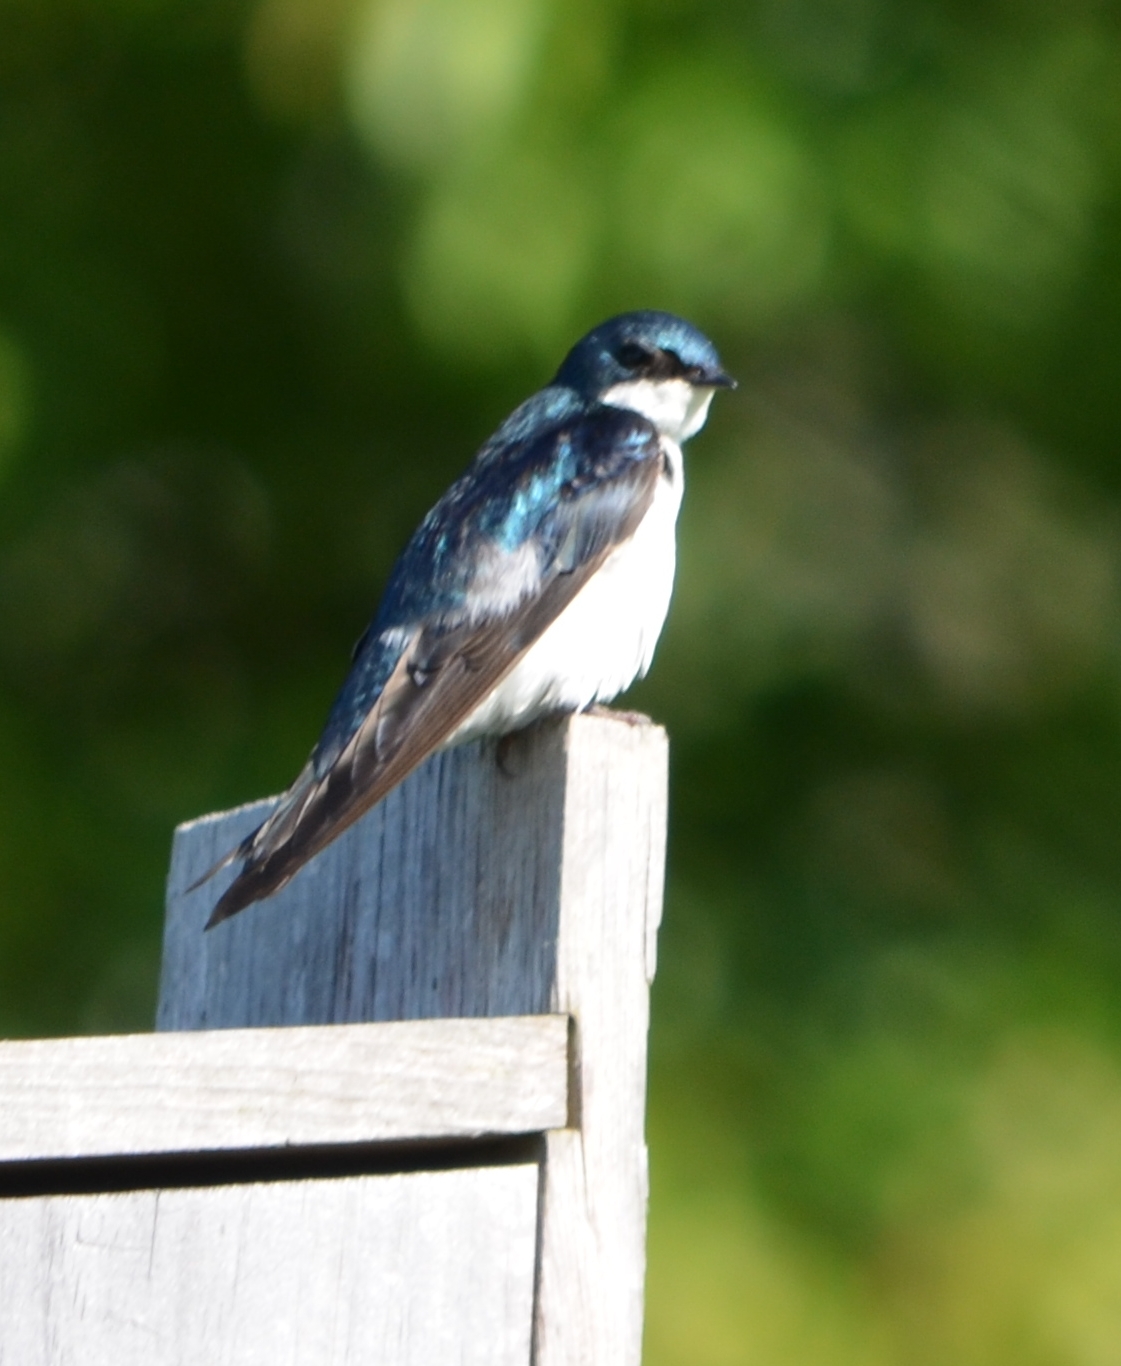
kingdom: Animalia
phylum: Chordata
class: Aves
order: Passeriformes
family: Hirundinidae
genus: Tachycineta
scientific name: Tachycineta bicolor
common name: Tree swallow
